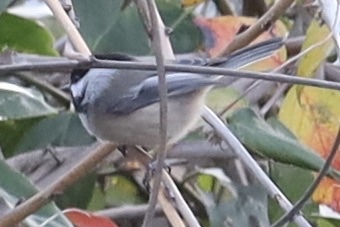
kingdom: Animalia
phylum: Chordata
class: Aves
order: Passeriformes
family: Paridae
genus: Poecile
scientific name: Poecile atricapillus
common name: Black-capped chickadee
